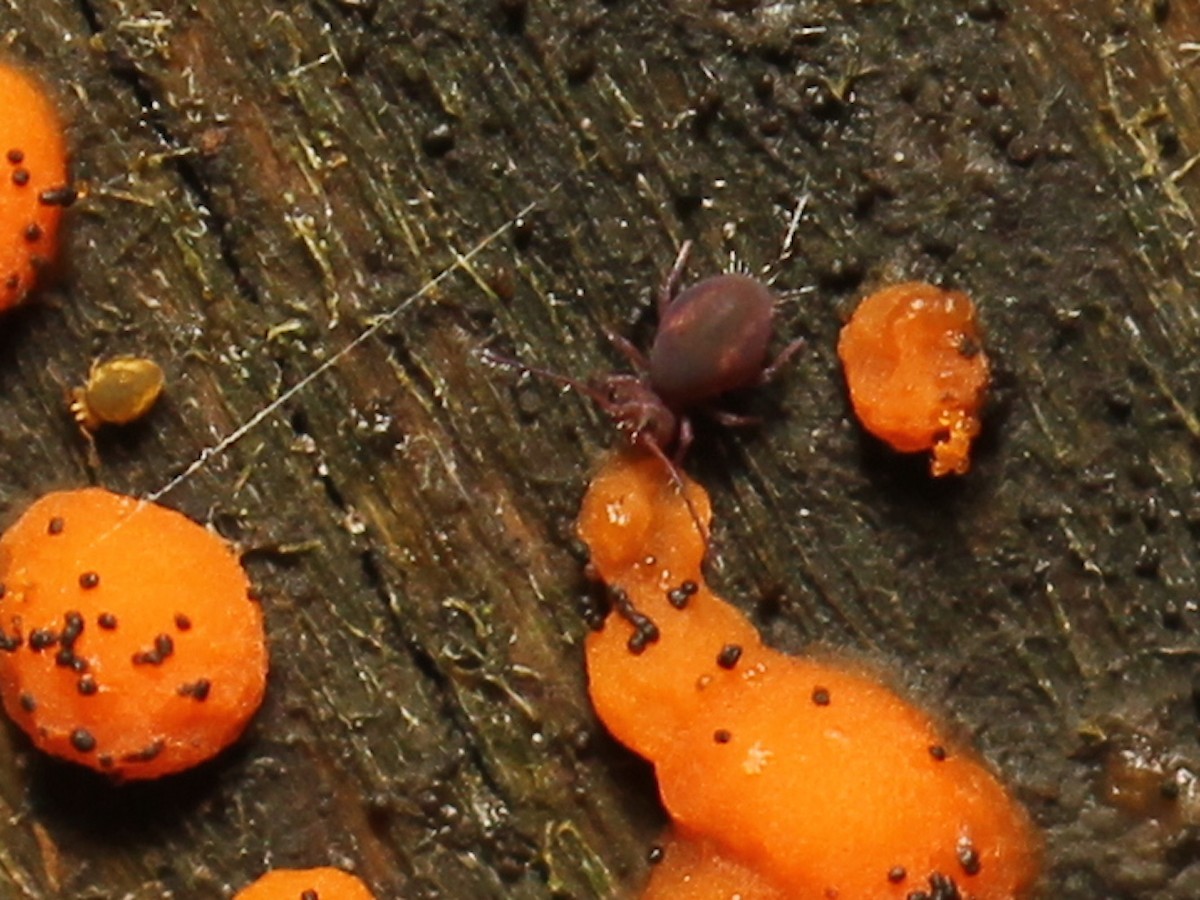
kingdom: Animalia
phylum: Arthropoda
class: Collembola
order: Symphypleona
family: Dicyrtomidae
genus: Dicyrtoma
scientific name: Dicyrtoma fusca
